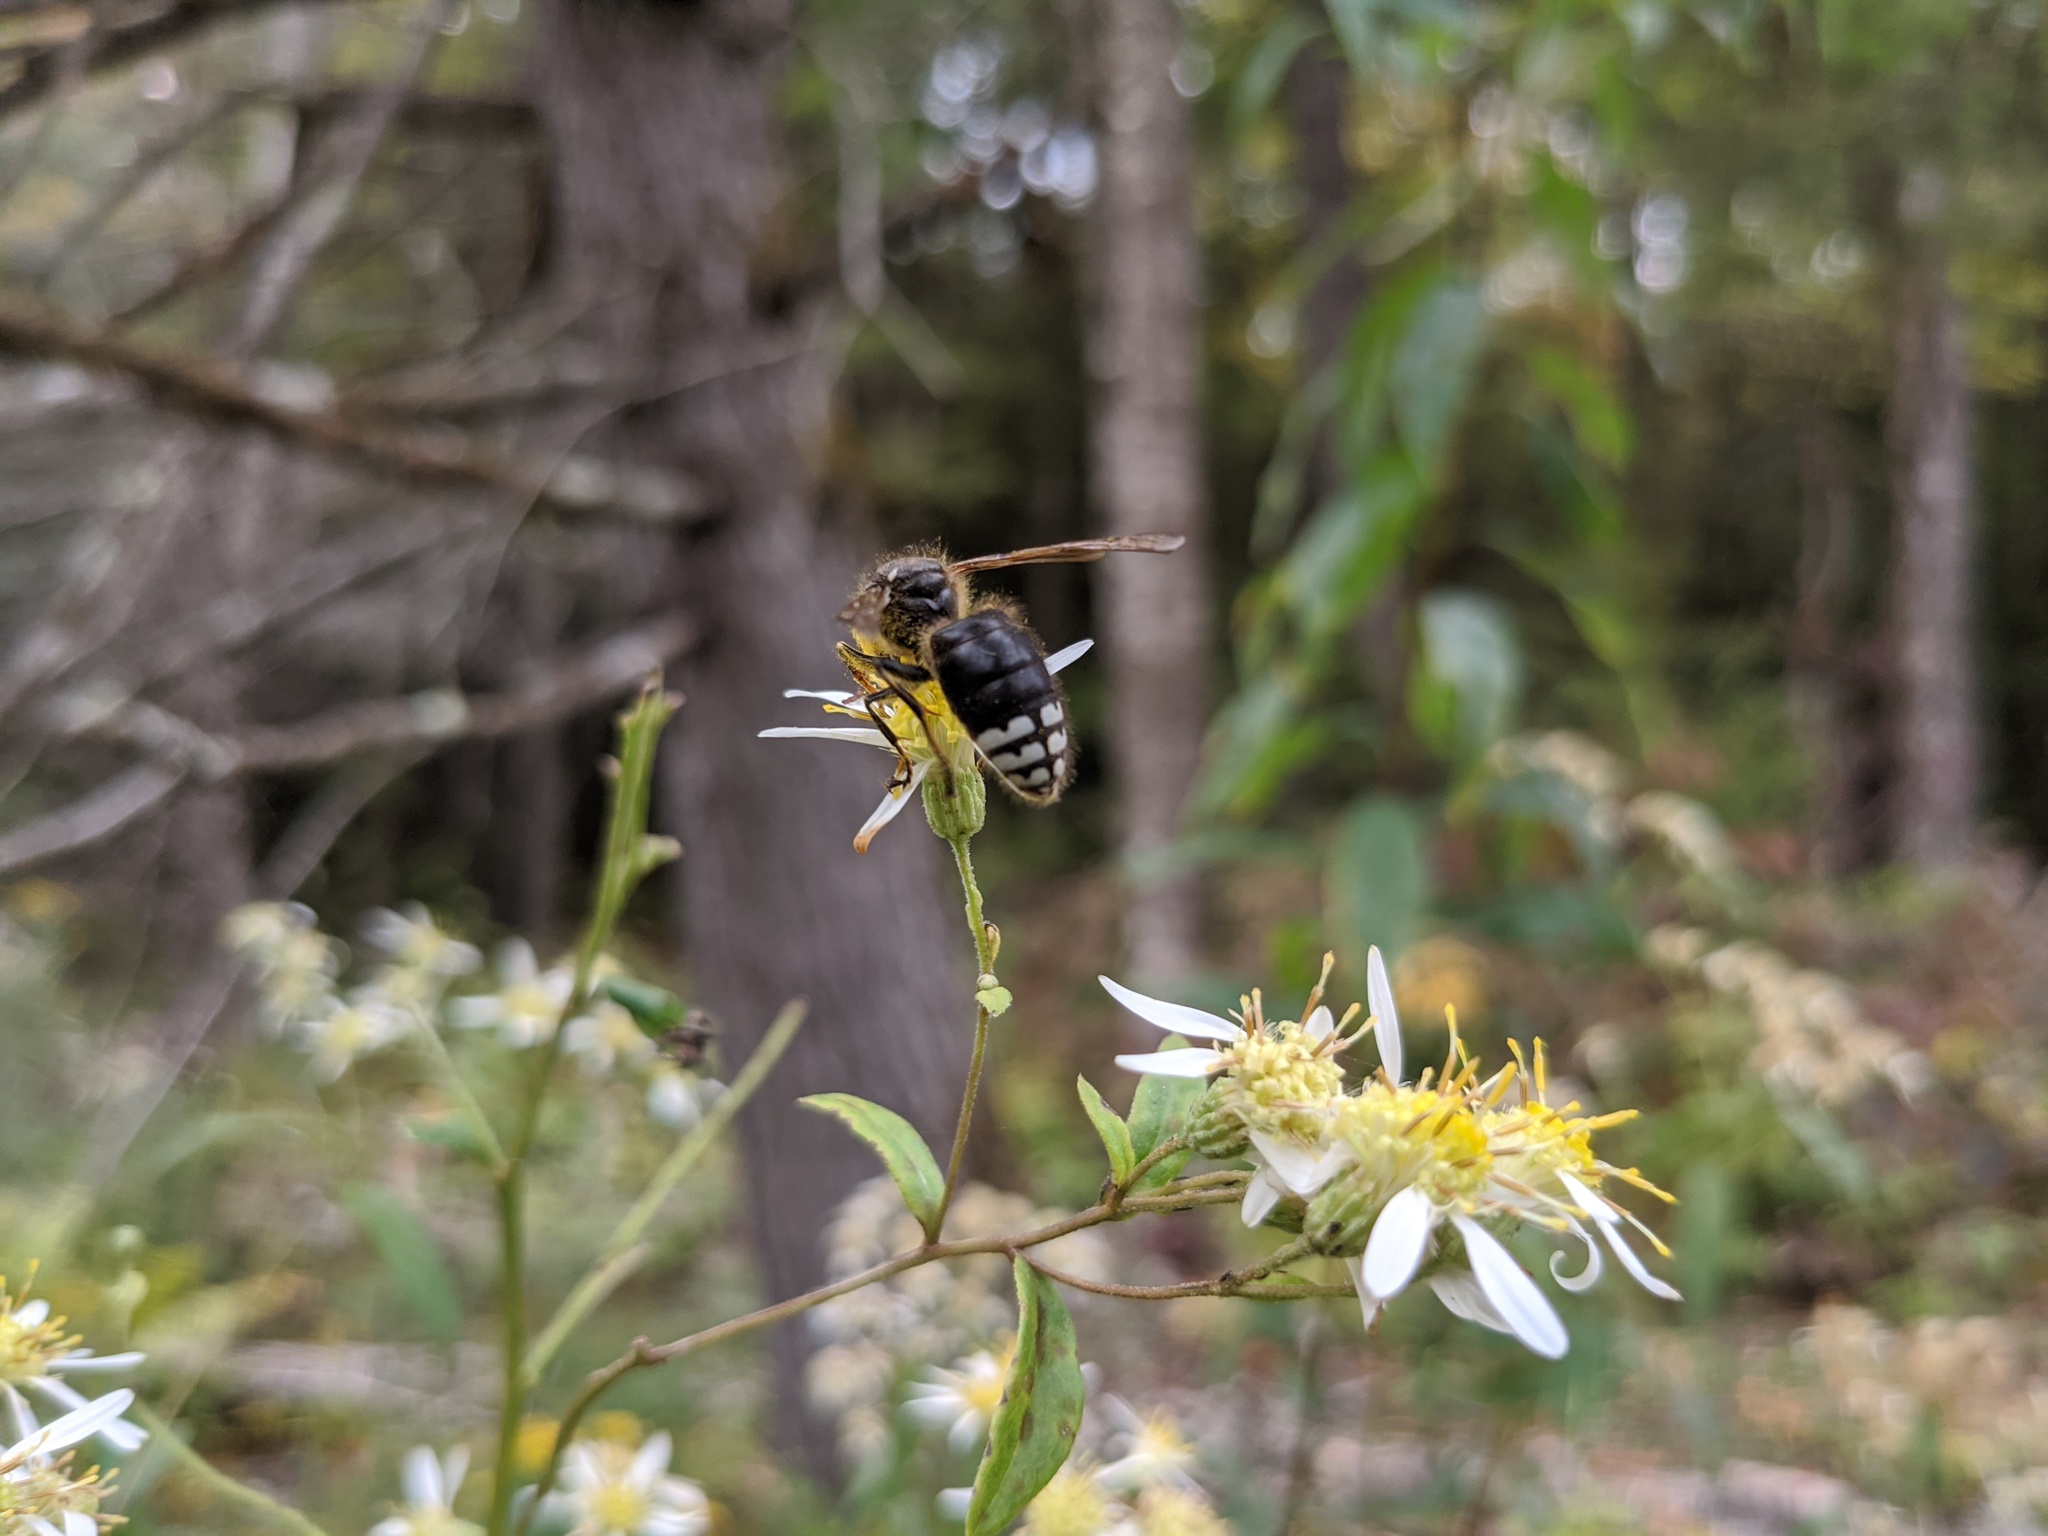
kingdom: Animalia
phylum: Arthropoda
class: Insecta
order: Hymenoptera
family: Vespidae
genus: Dolichovespula
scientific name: Dolichovespula maculata
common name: Bald-faced hornet
